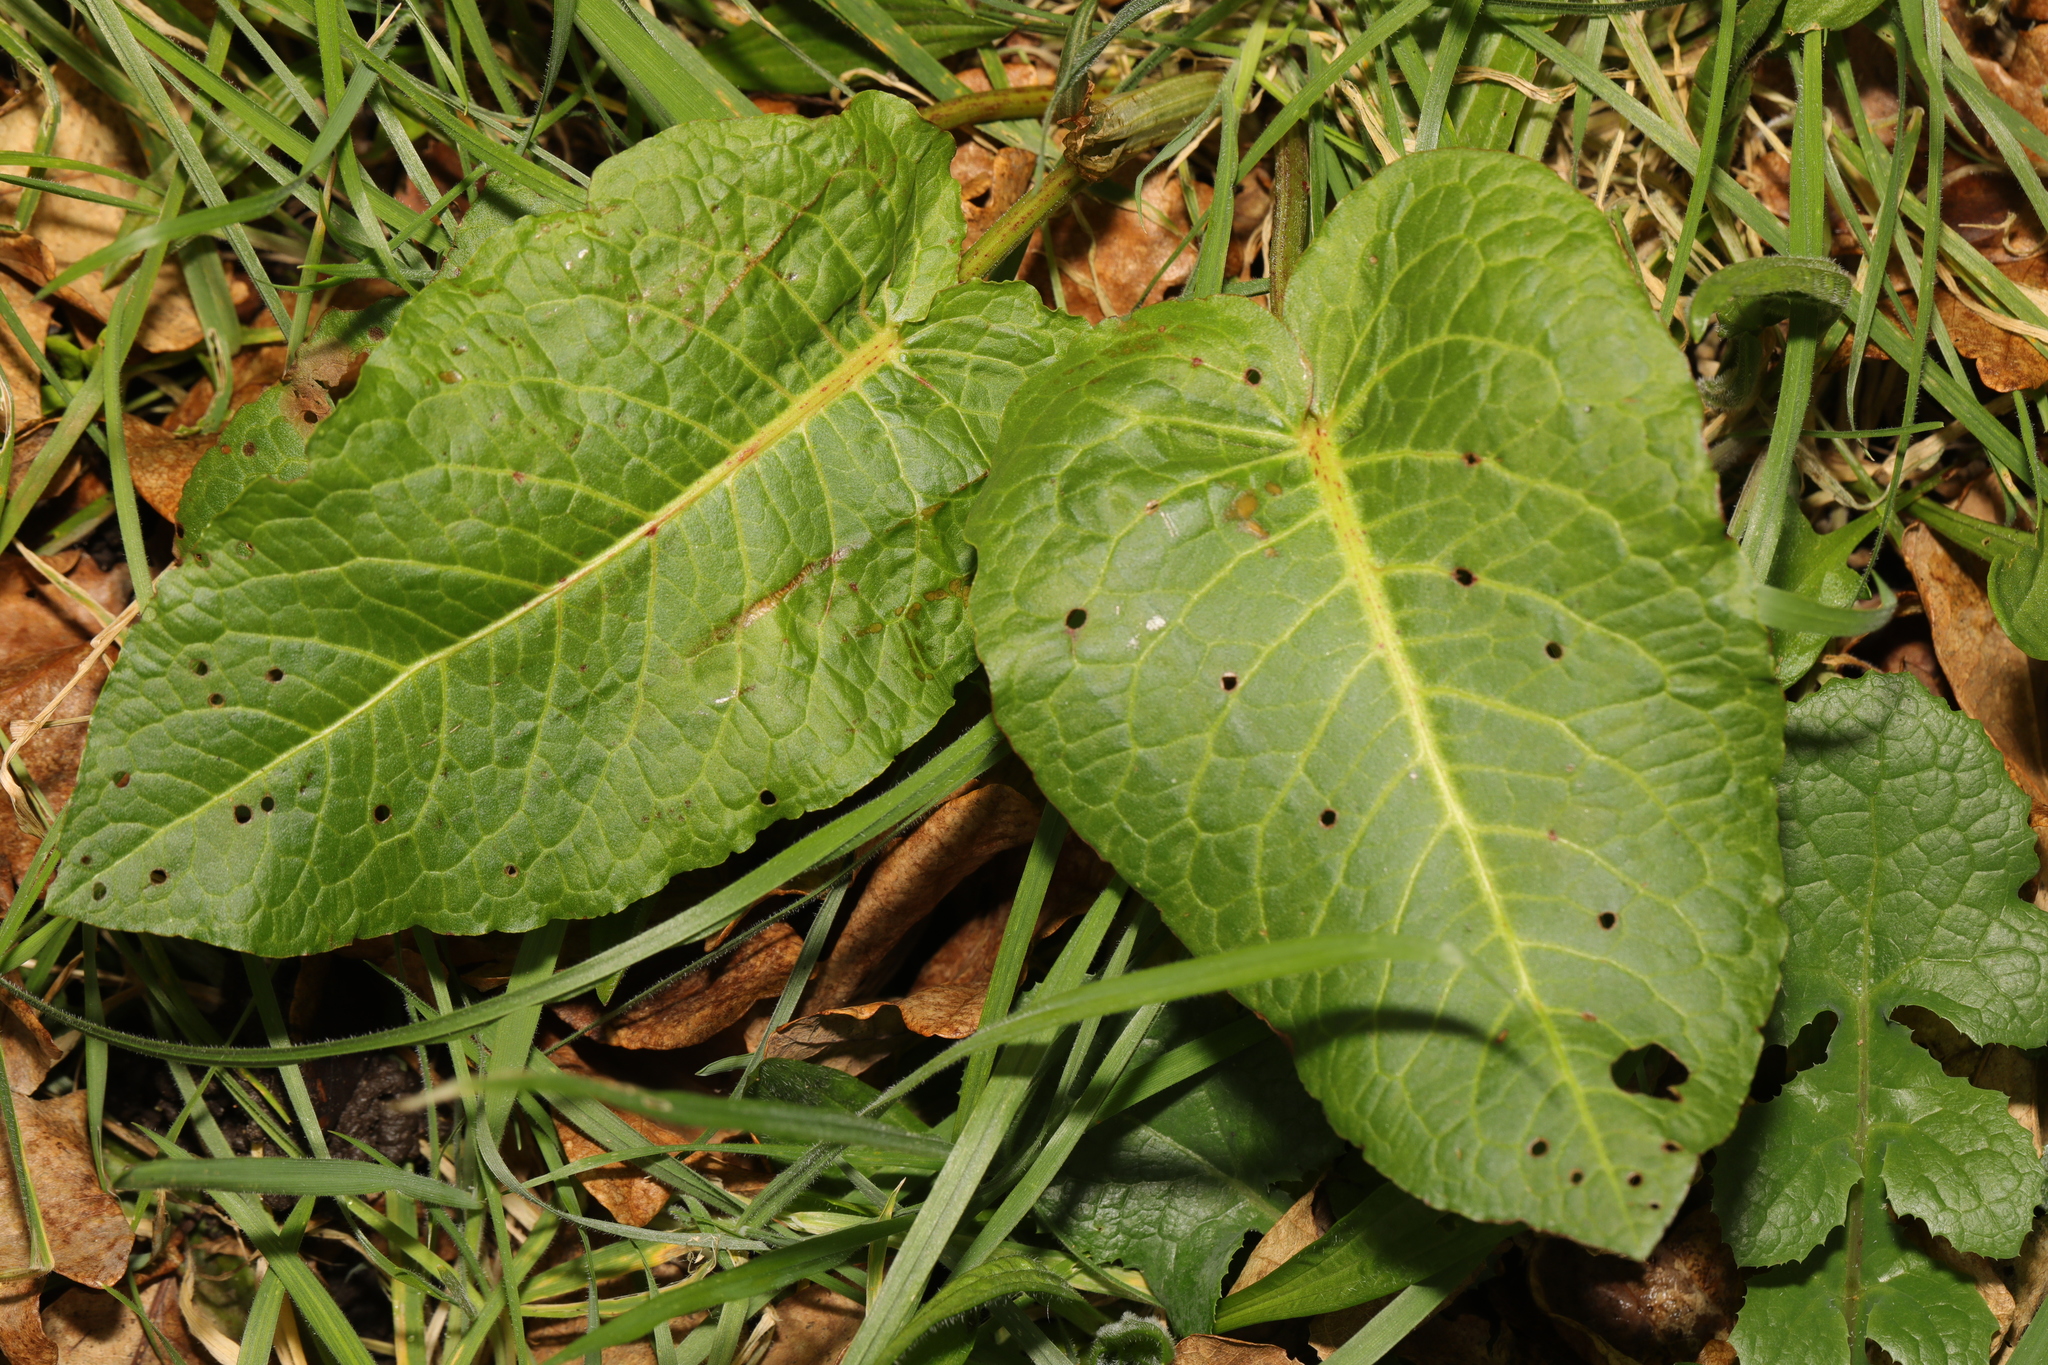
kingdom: Plantae
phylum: Tracheophyta
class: Magnoliopsida
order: Caryophyllales
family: Polygonaceae
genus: Rumex
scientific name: Rumex obtusifolius
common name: Bitter dock
